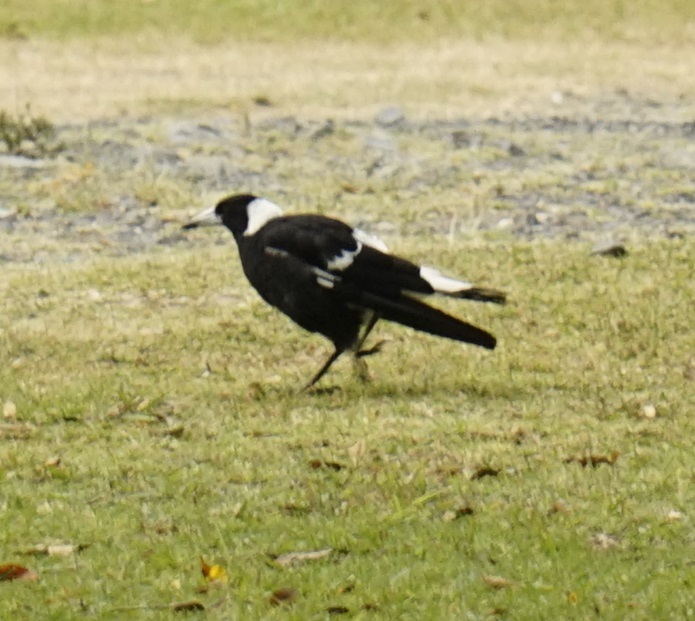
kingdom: Animalia
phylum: Chordata
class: Aves
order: Passeriformes
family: Cracticidae
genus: Gymnorhina
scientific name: Gymnorhina tibicen
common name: Australian magpie
